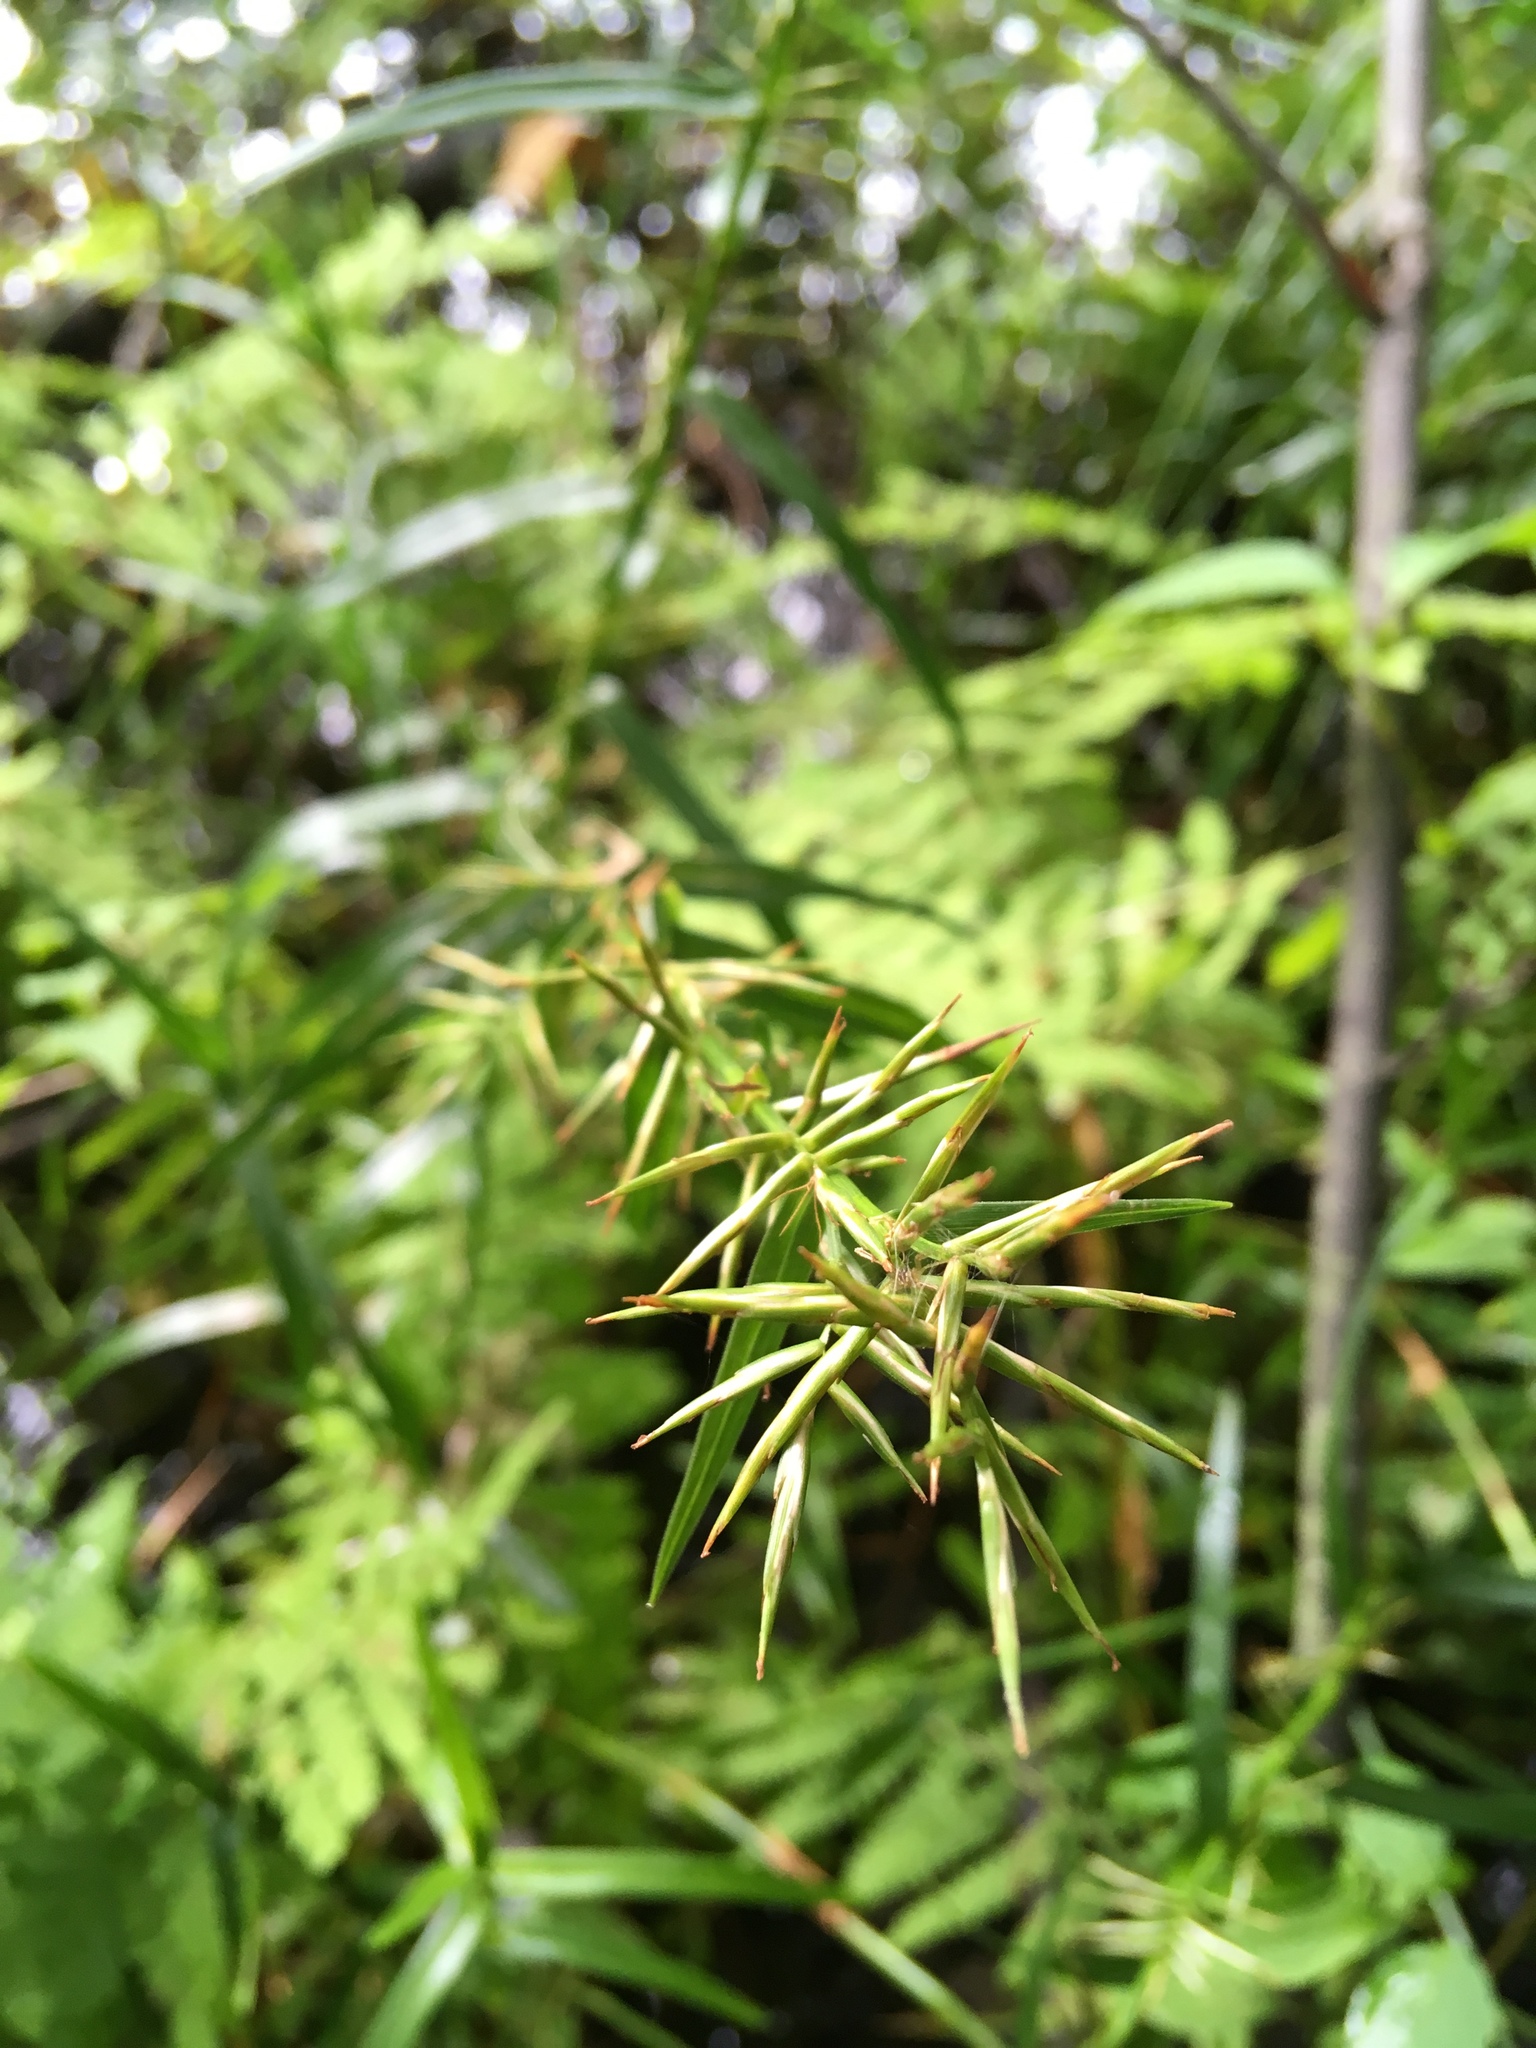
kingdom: Plantae
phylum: Tracheophyta
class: Liliopsida
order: Poales
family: Cyperaceae
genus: Dulichium
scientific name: Dulichium arundinaceum
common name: Three-way sedge
